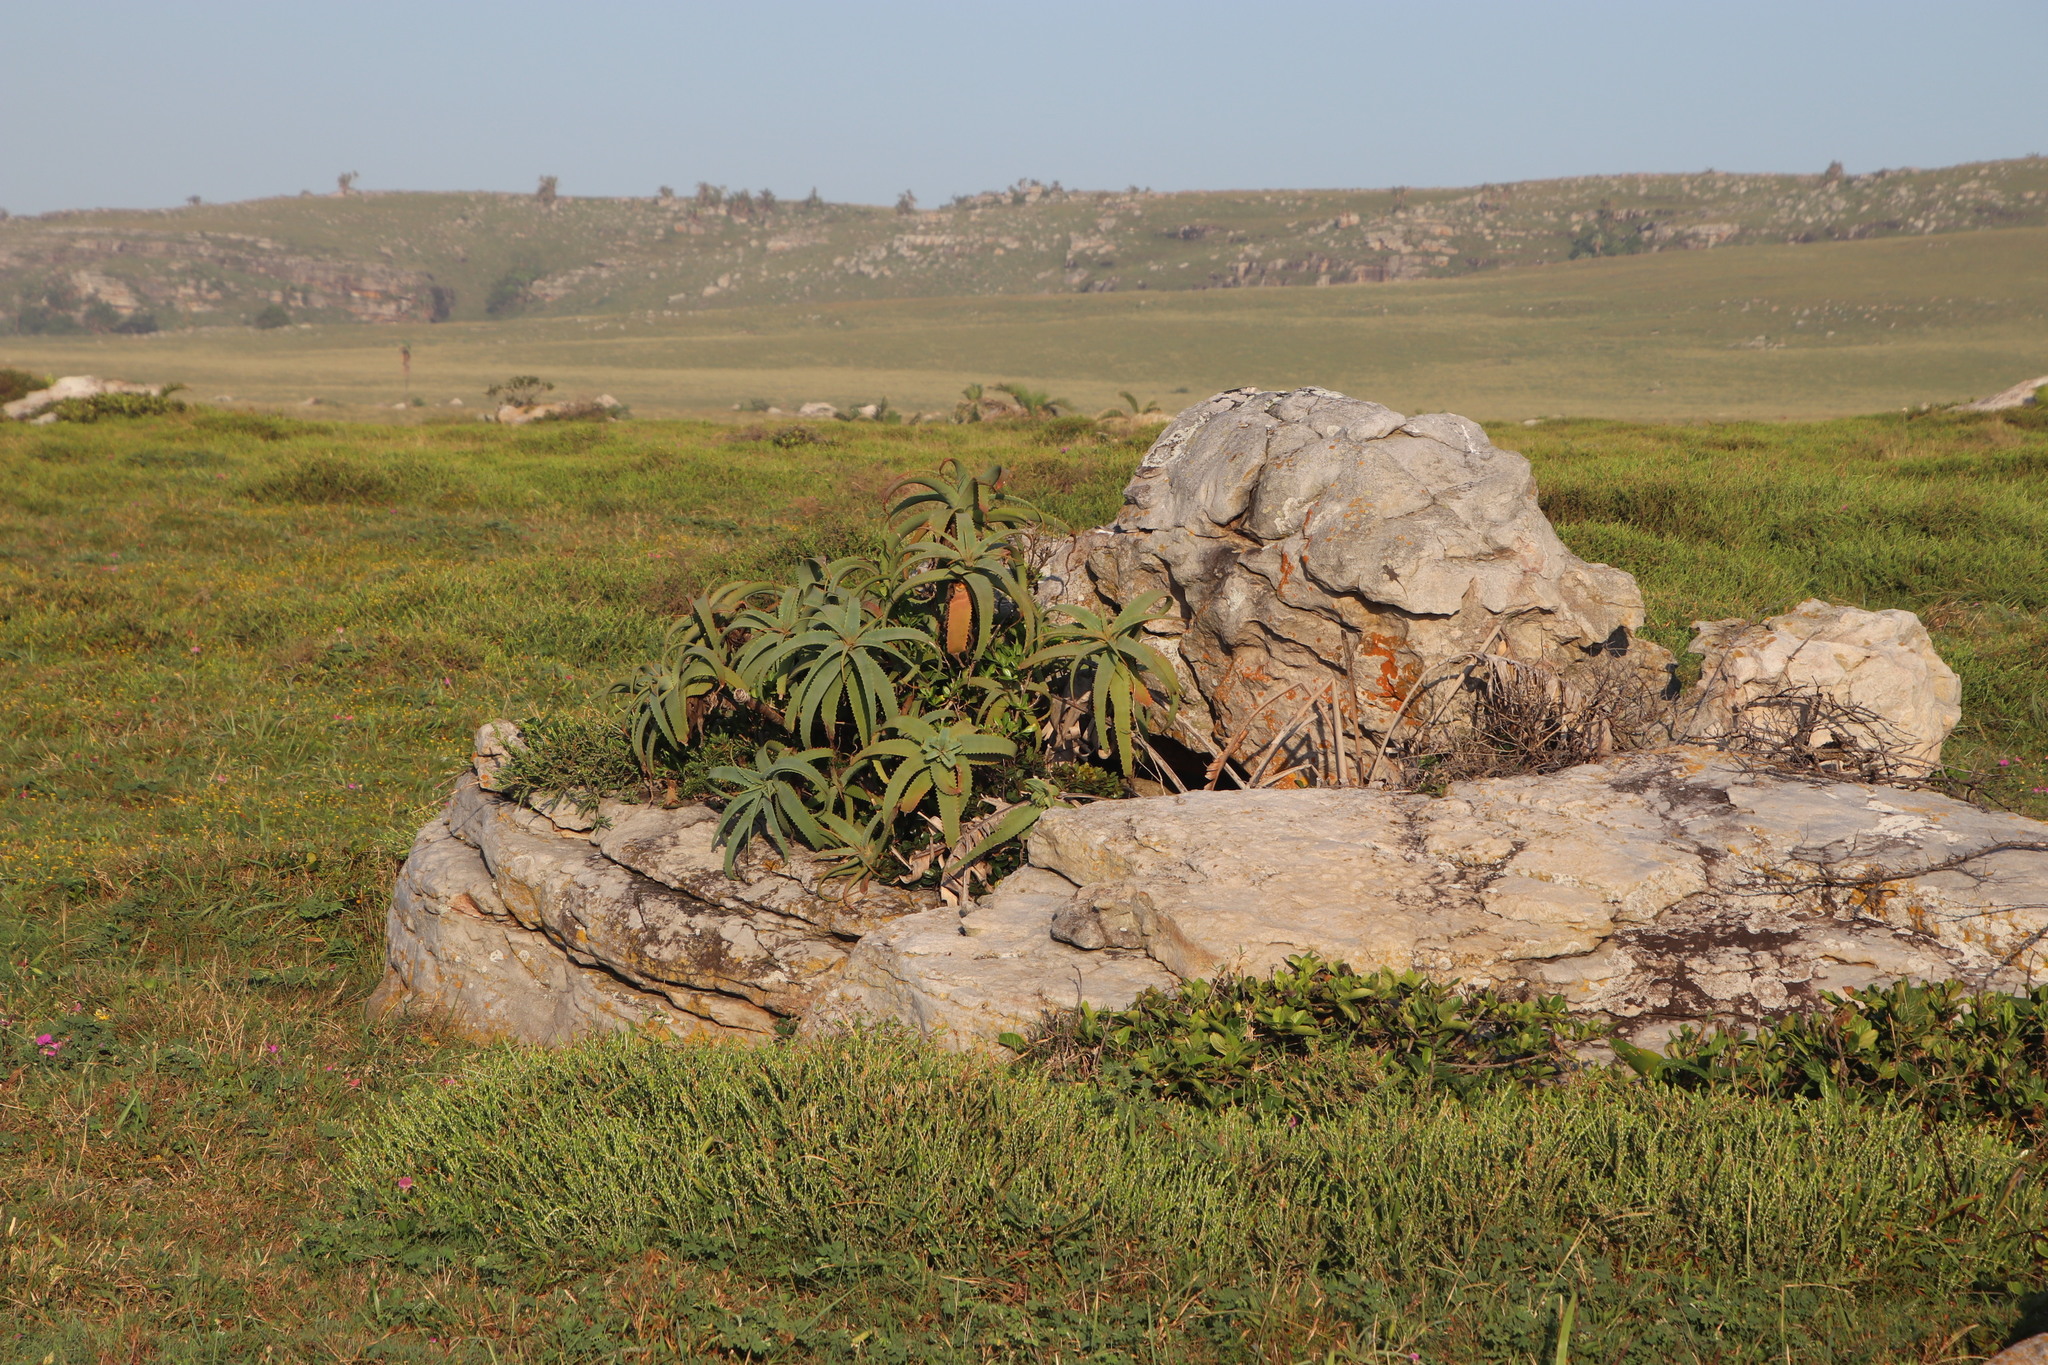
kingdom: Plantae
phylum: Tracheophyta
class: Liliopsida
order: Asparagales
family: Asphodelaceae
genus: Aloe
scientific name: Aloe arborescens
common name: Candelabra aloe
